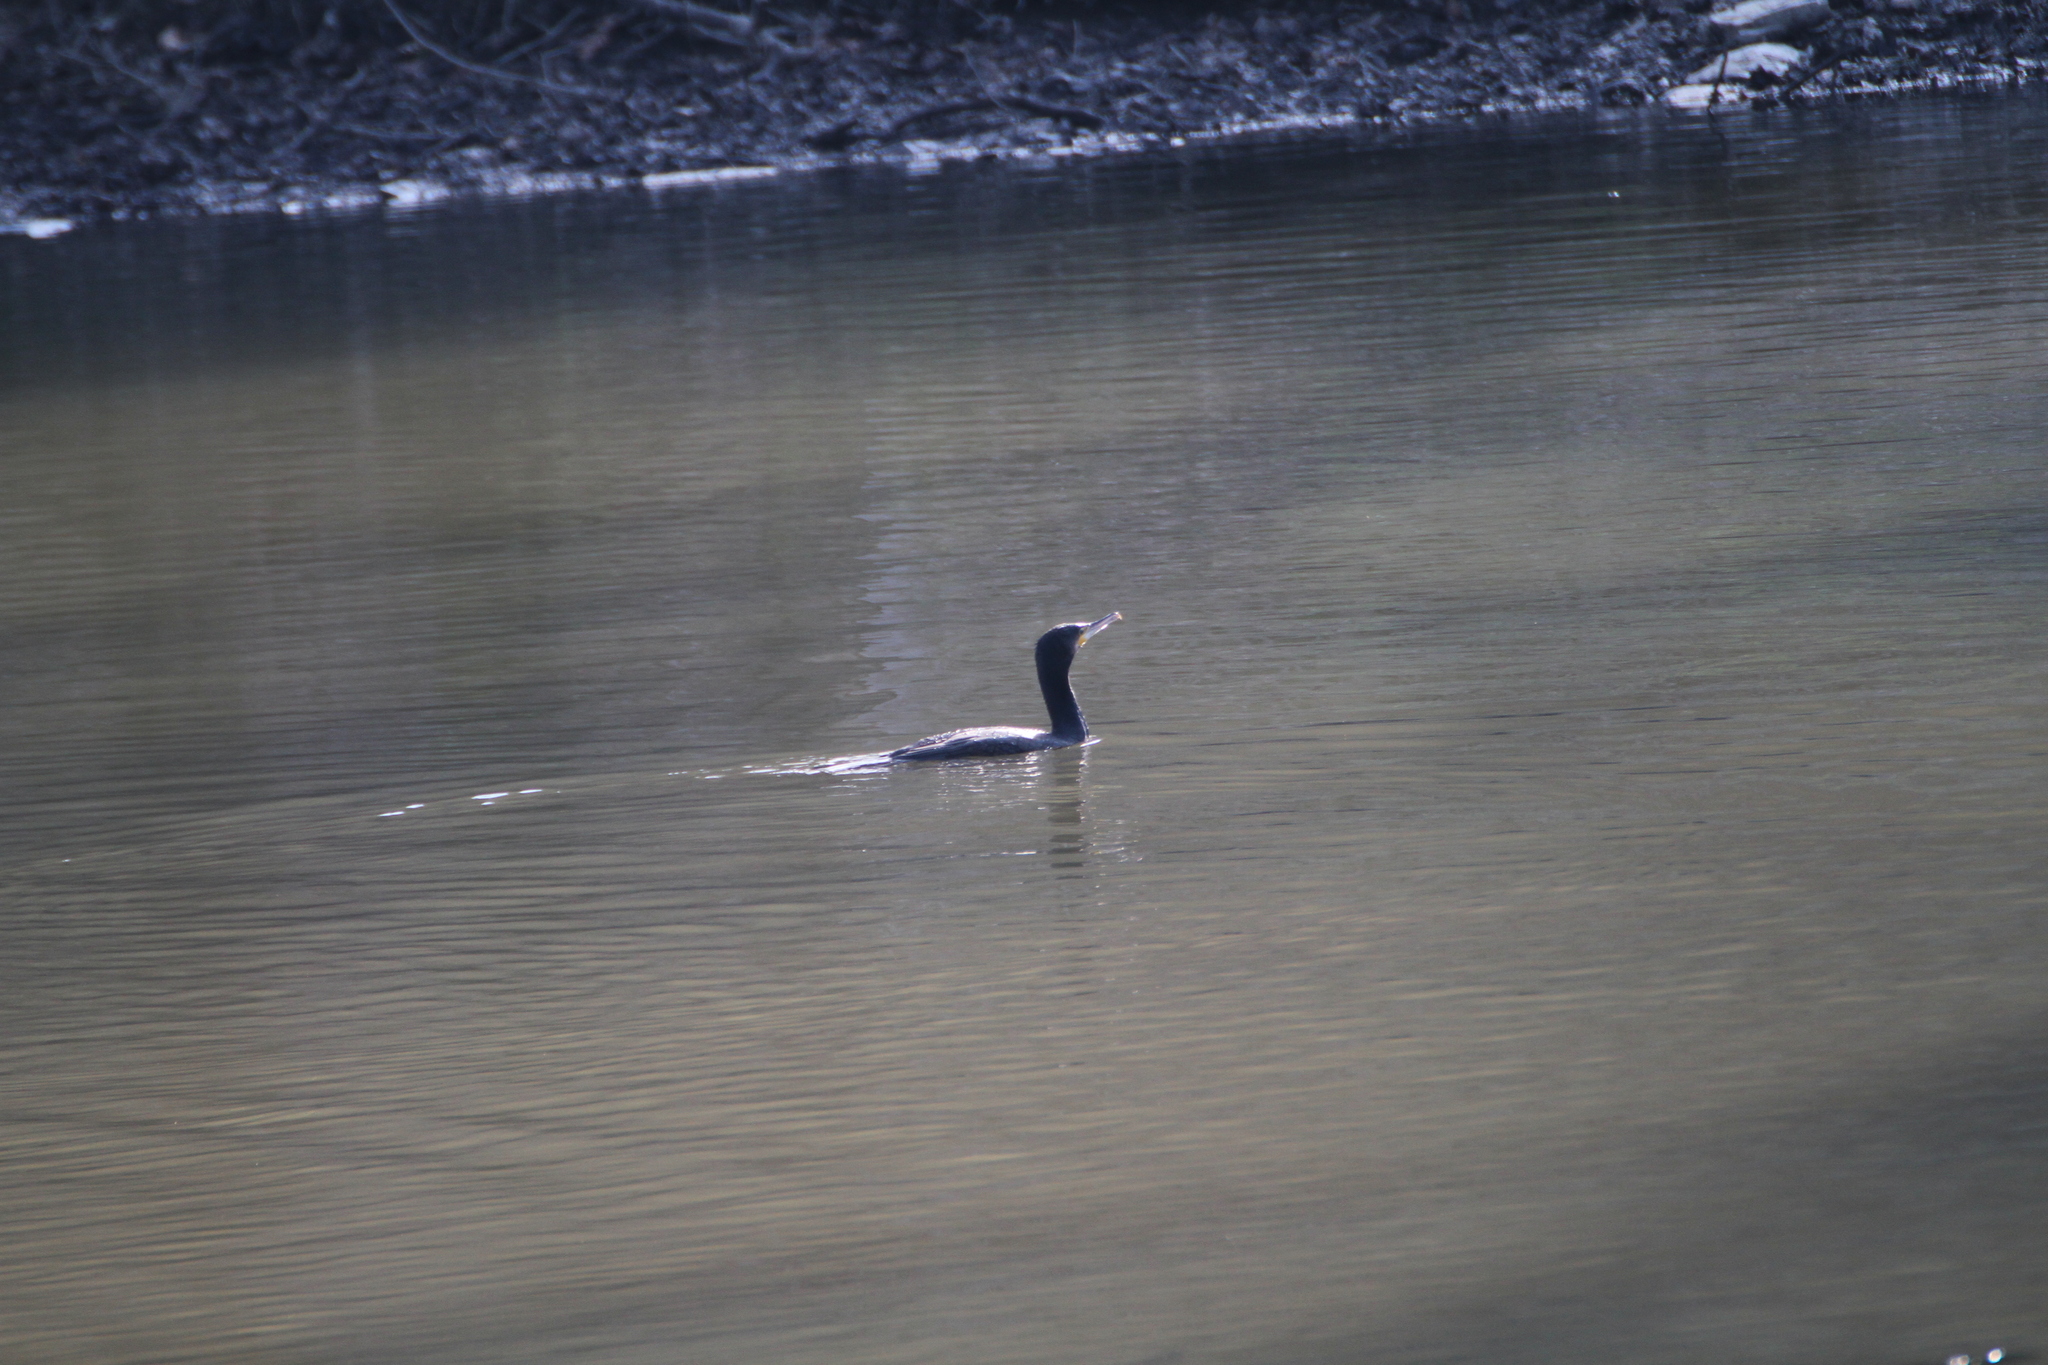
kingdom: Animalia
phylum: Chordata
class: Aves
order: Suliformes
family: Phalacrocoracidae
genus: Phalacrocorax
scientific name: Phalacrocorax carbo
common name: Great cormorant
